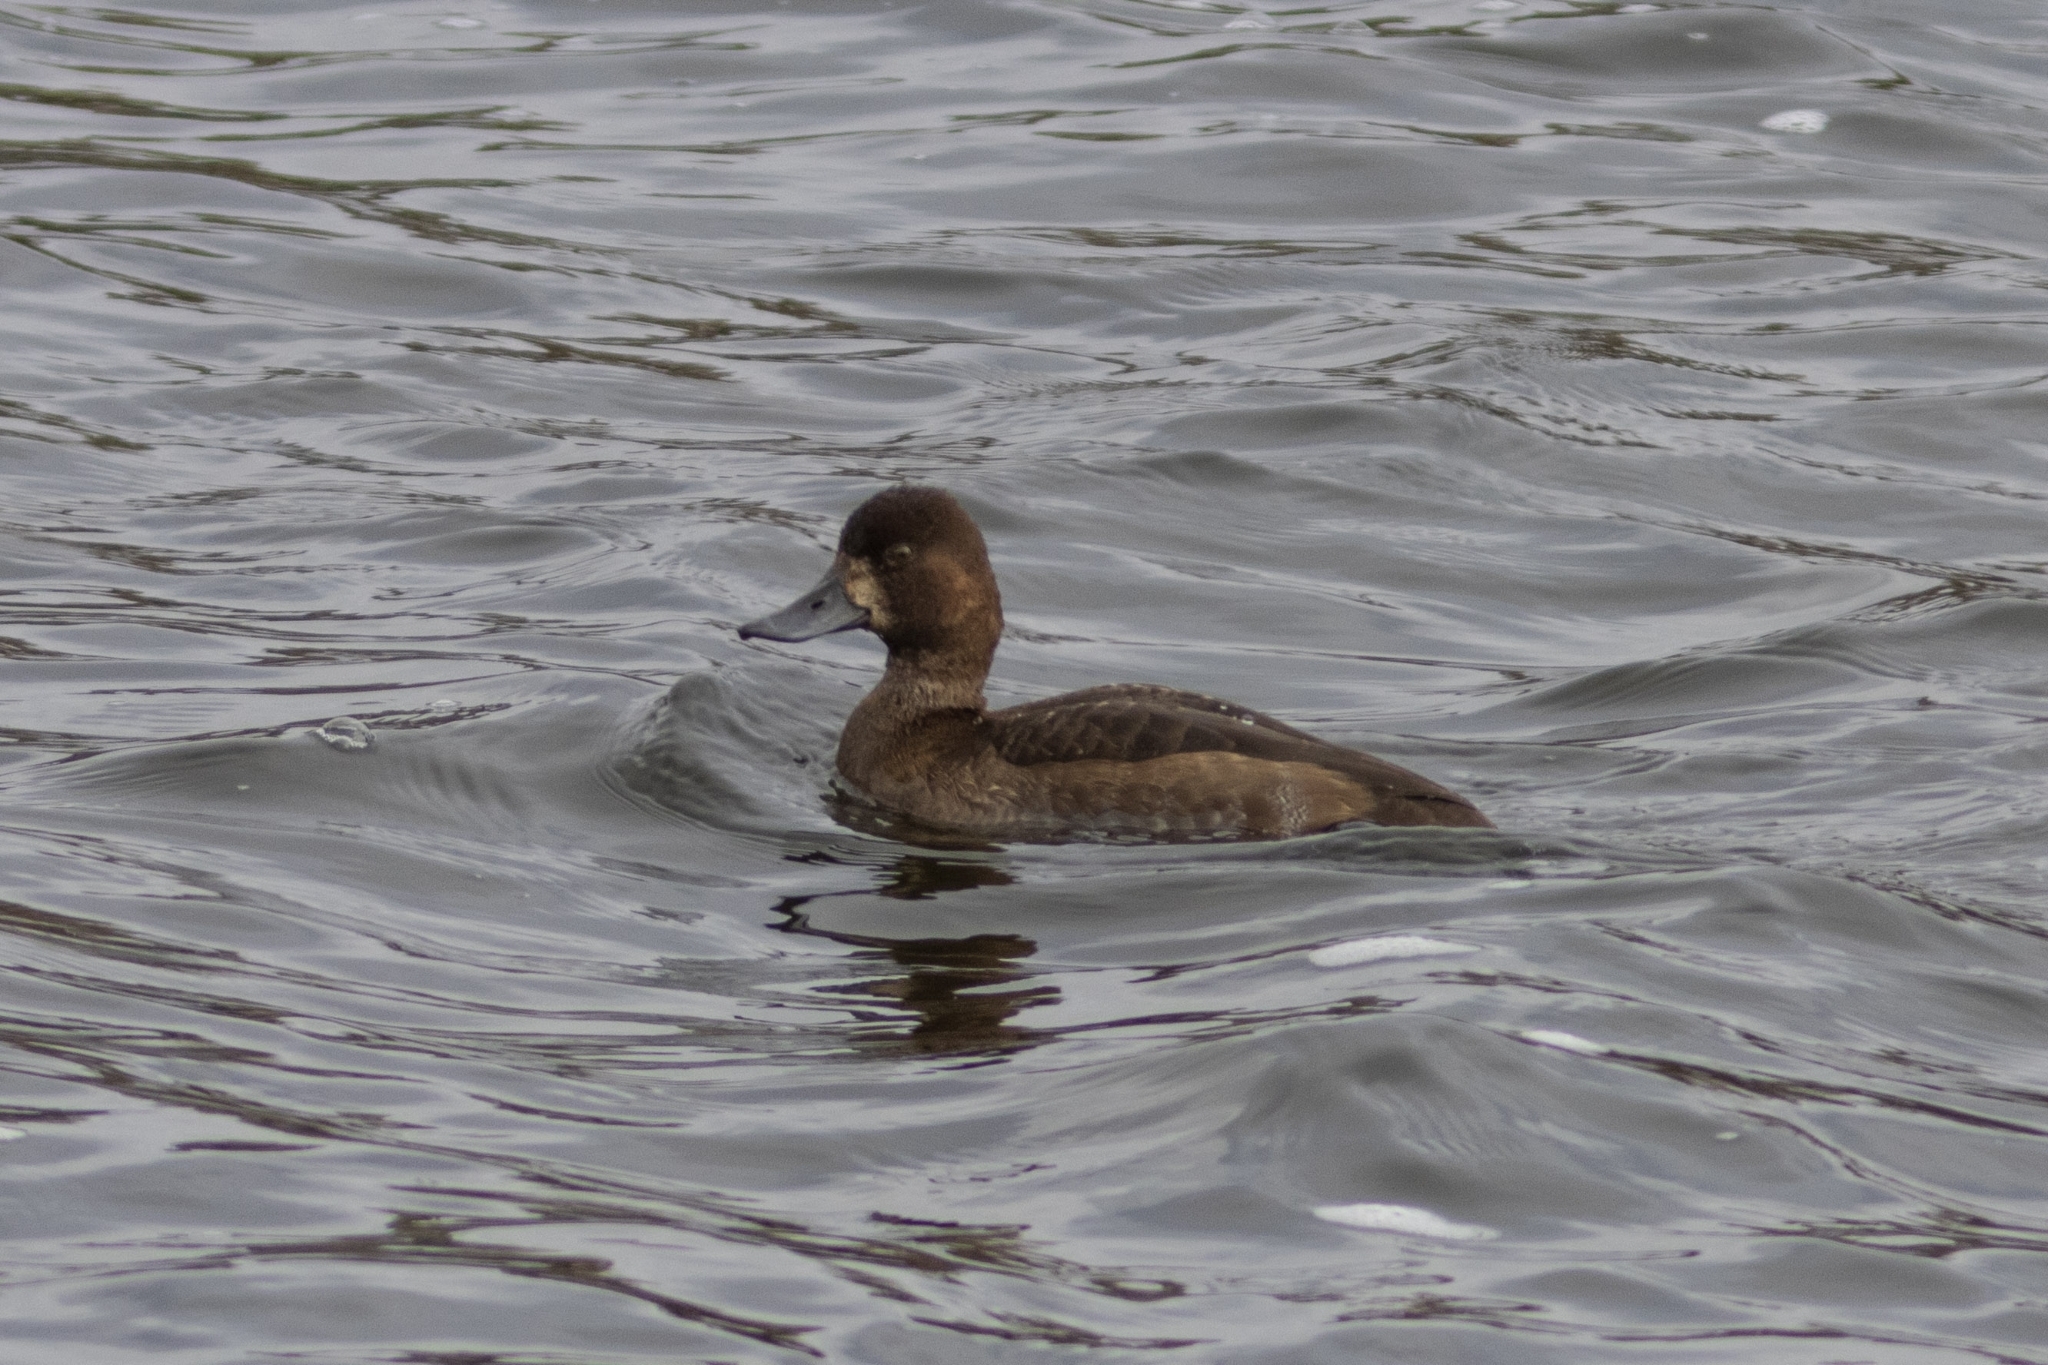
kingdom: Animalia
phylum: Chordata
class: Aves
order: Anseriformes
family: Anatidae
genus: Aythya
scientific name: Aythya affinis
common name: Lesser scaup
